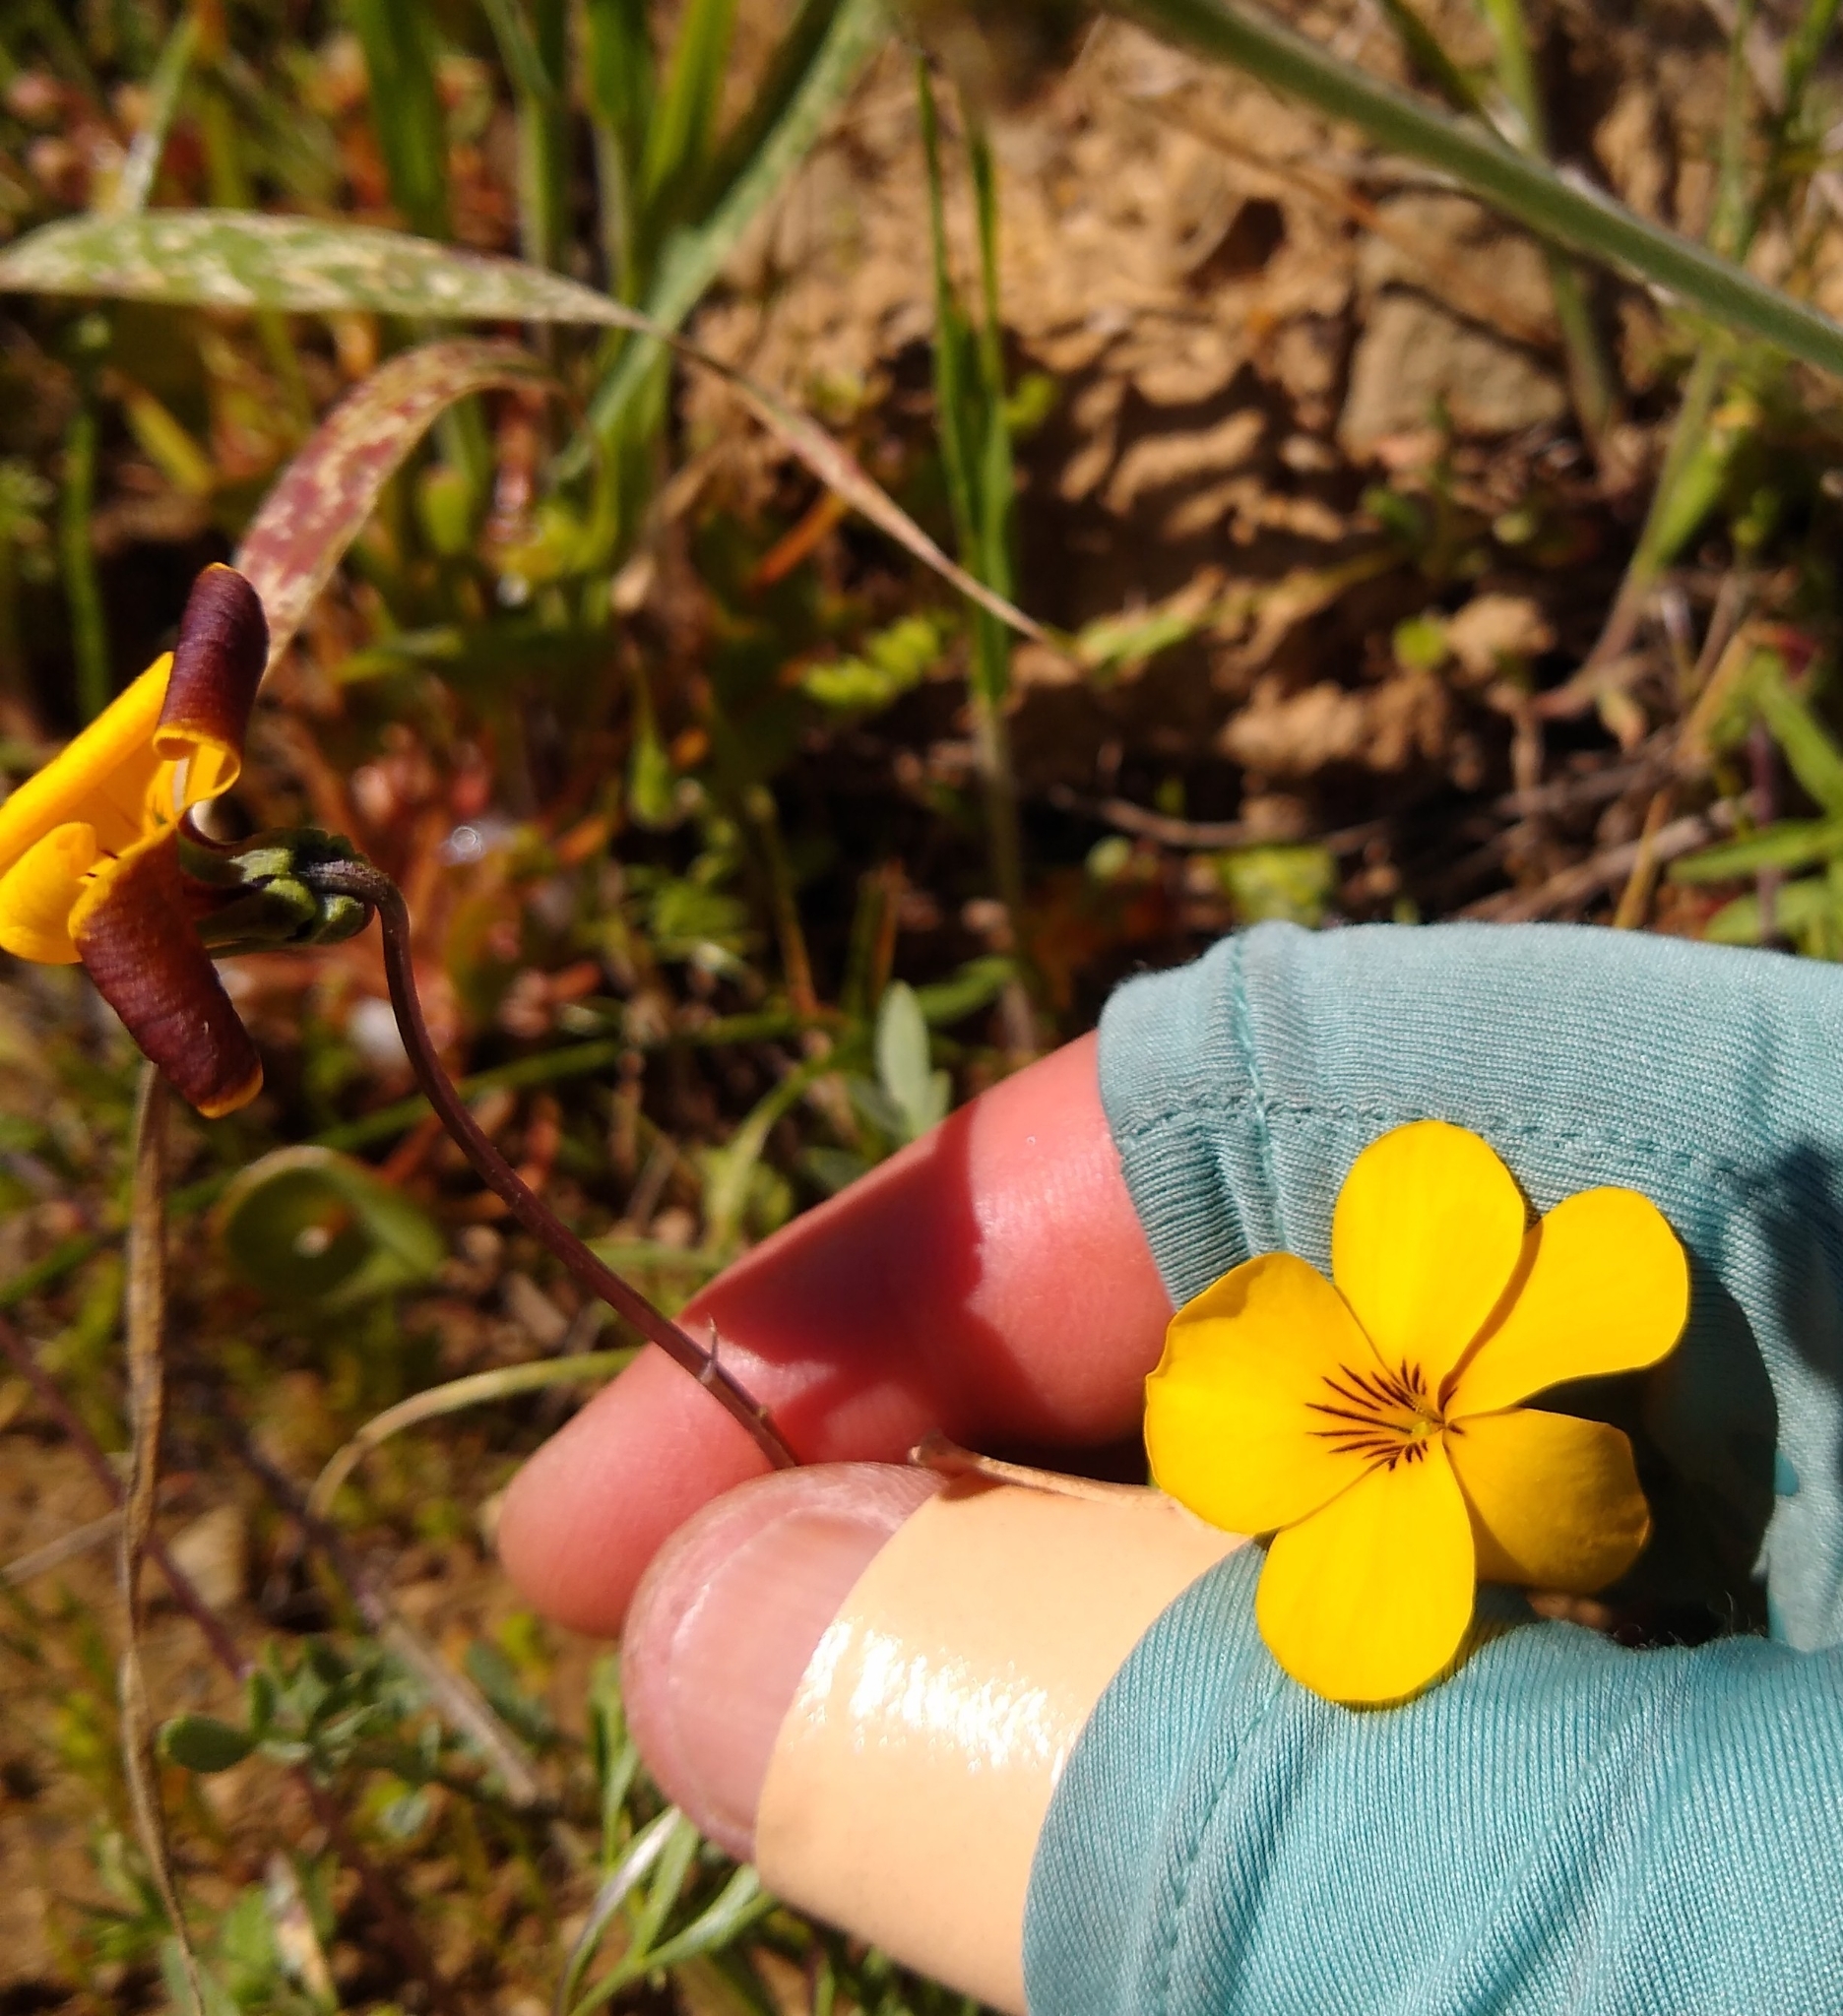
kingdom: Plantae
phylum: Tracheophyta
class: Magnoliopsida
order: Malpighiales
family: Violaceae
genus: Viola
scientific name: Viola douglasii
